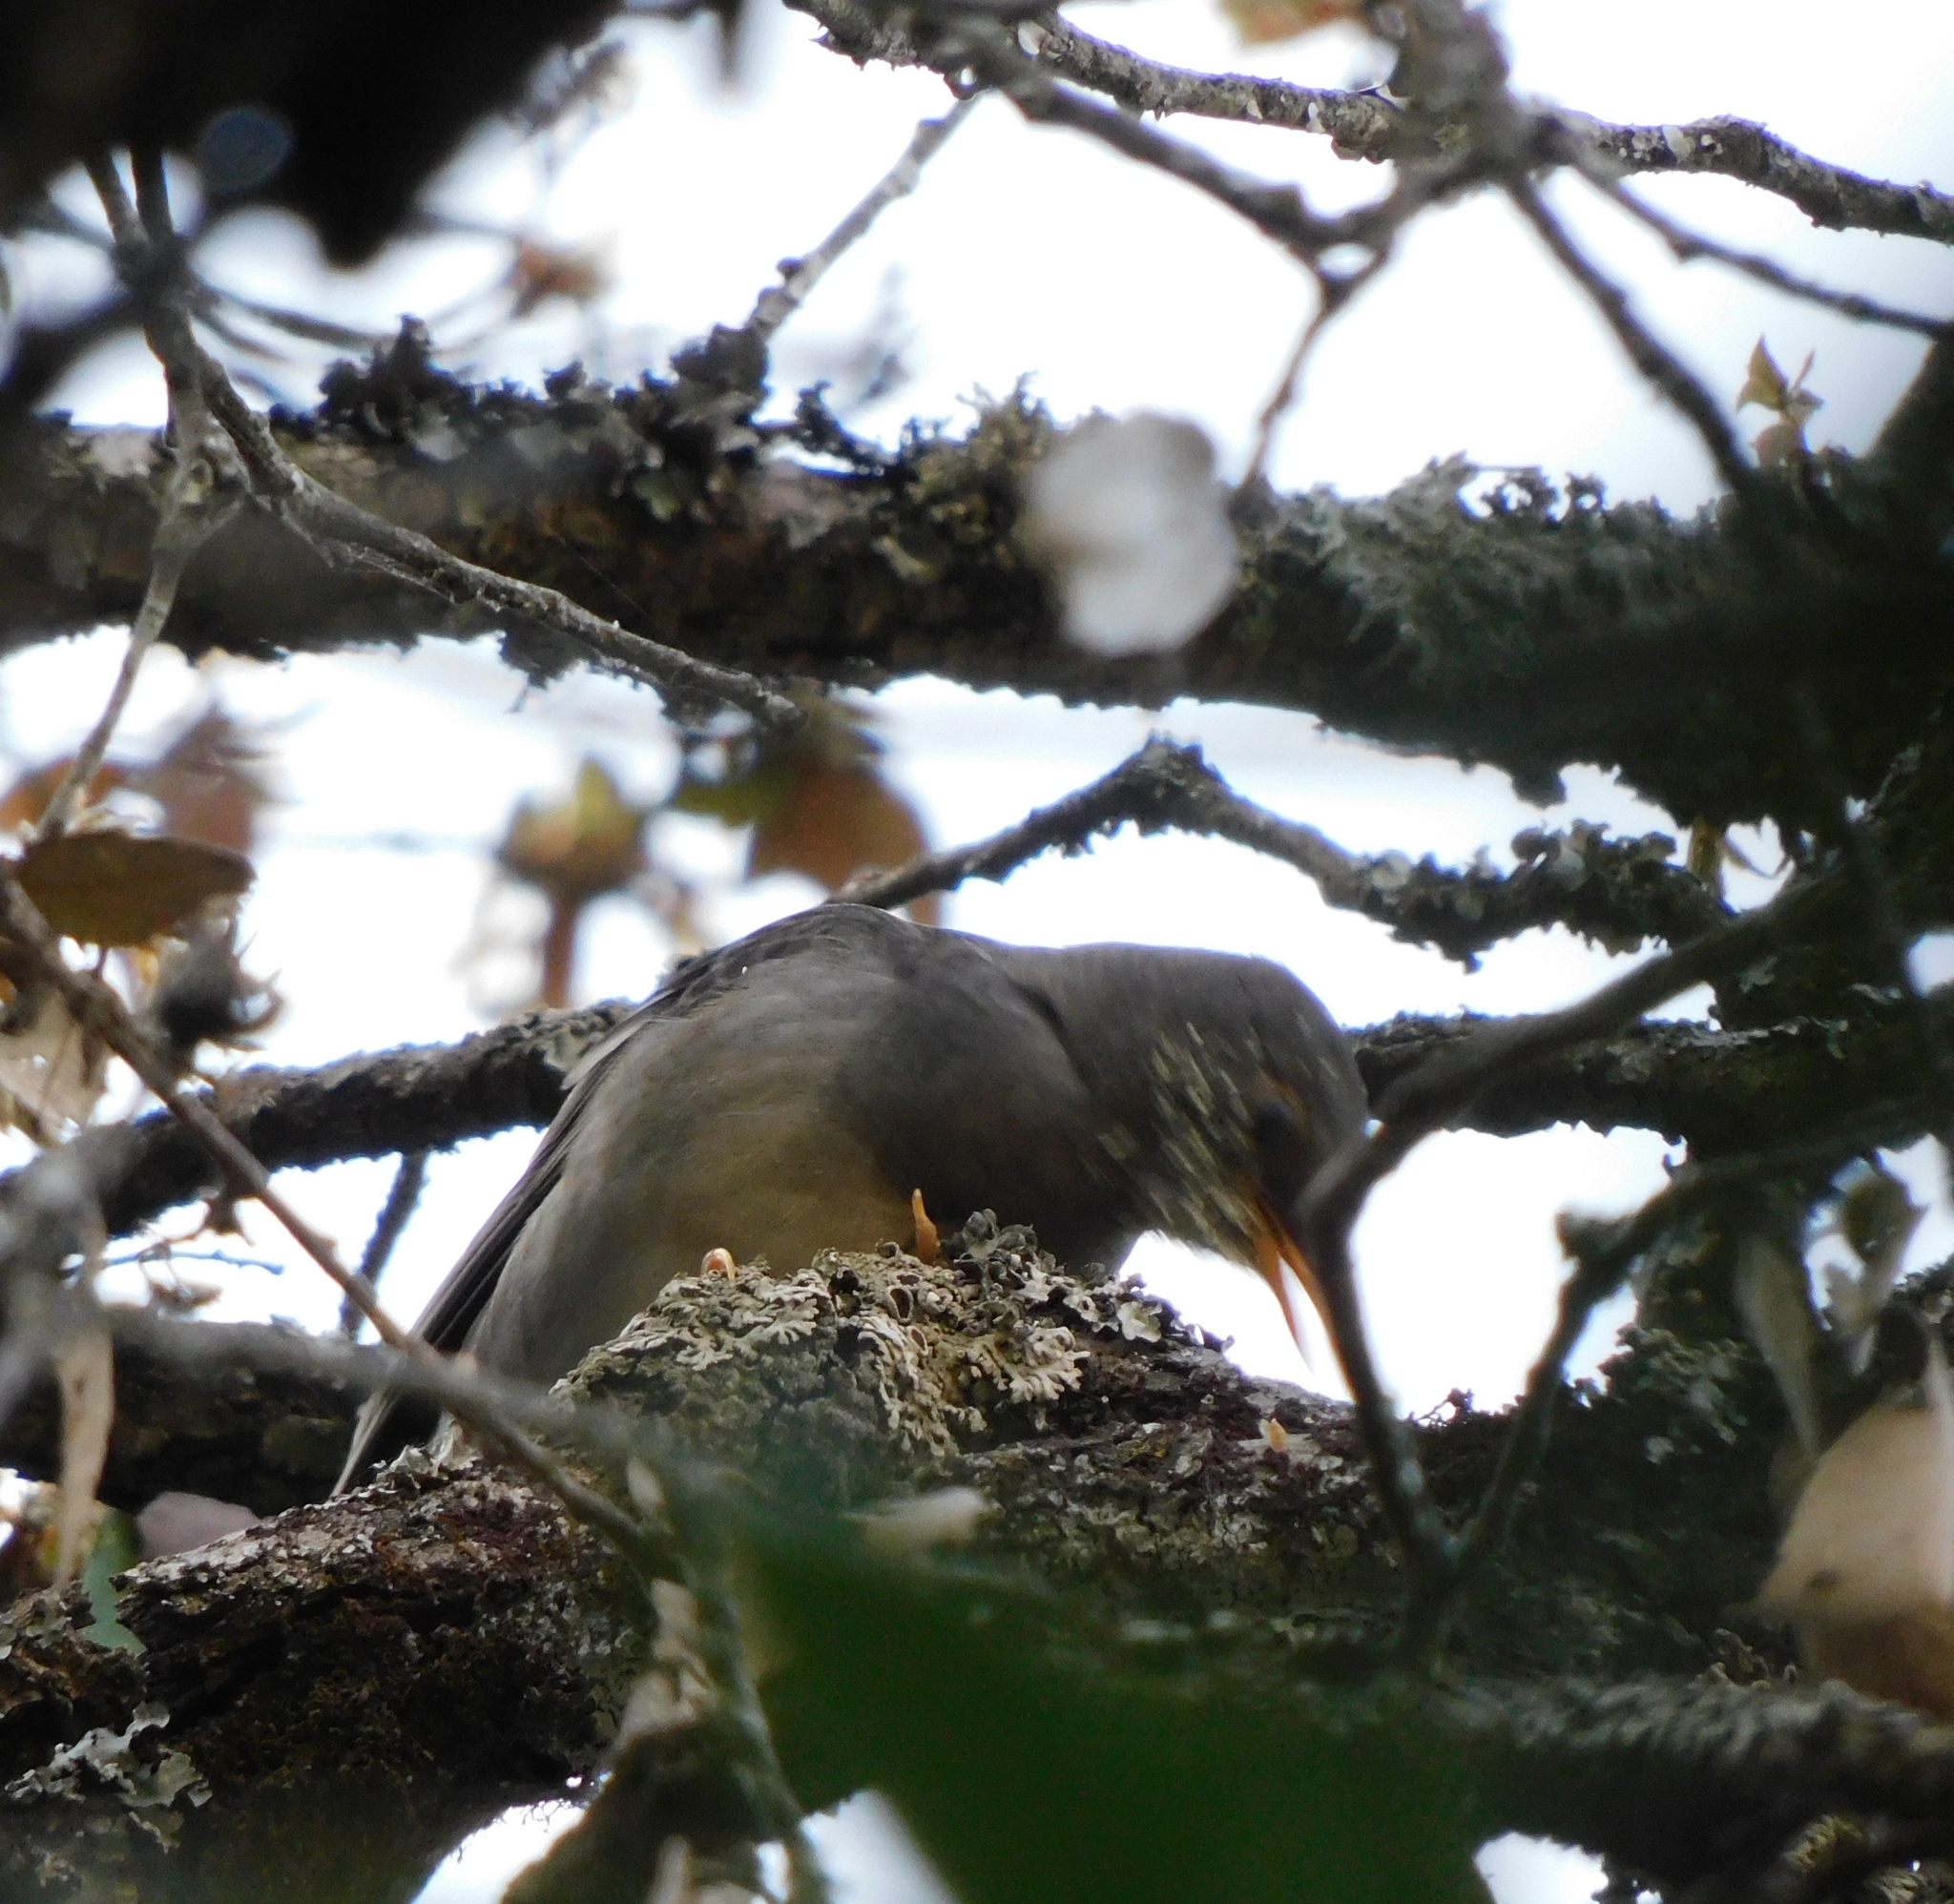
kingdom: Animalia
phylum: Chordata
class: Aves
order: Passeriformes
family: Turdidae
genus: Turdus
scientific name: Turdus atrogularis
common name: Black-throated thrush
